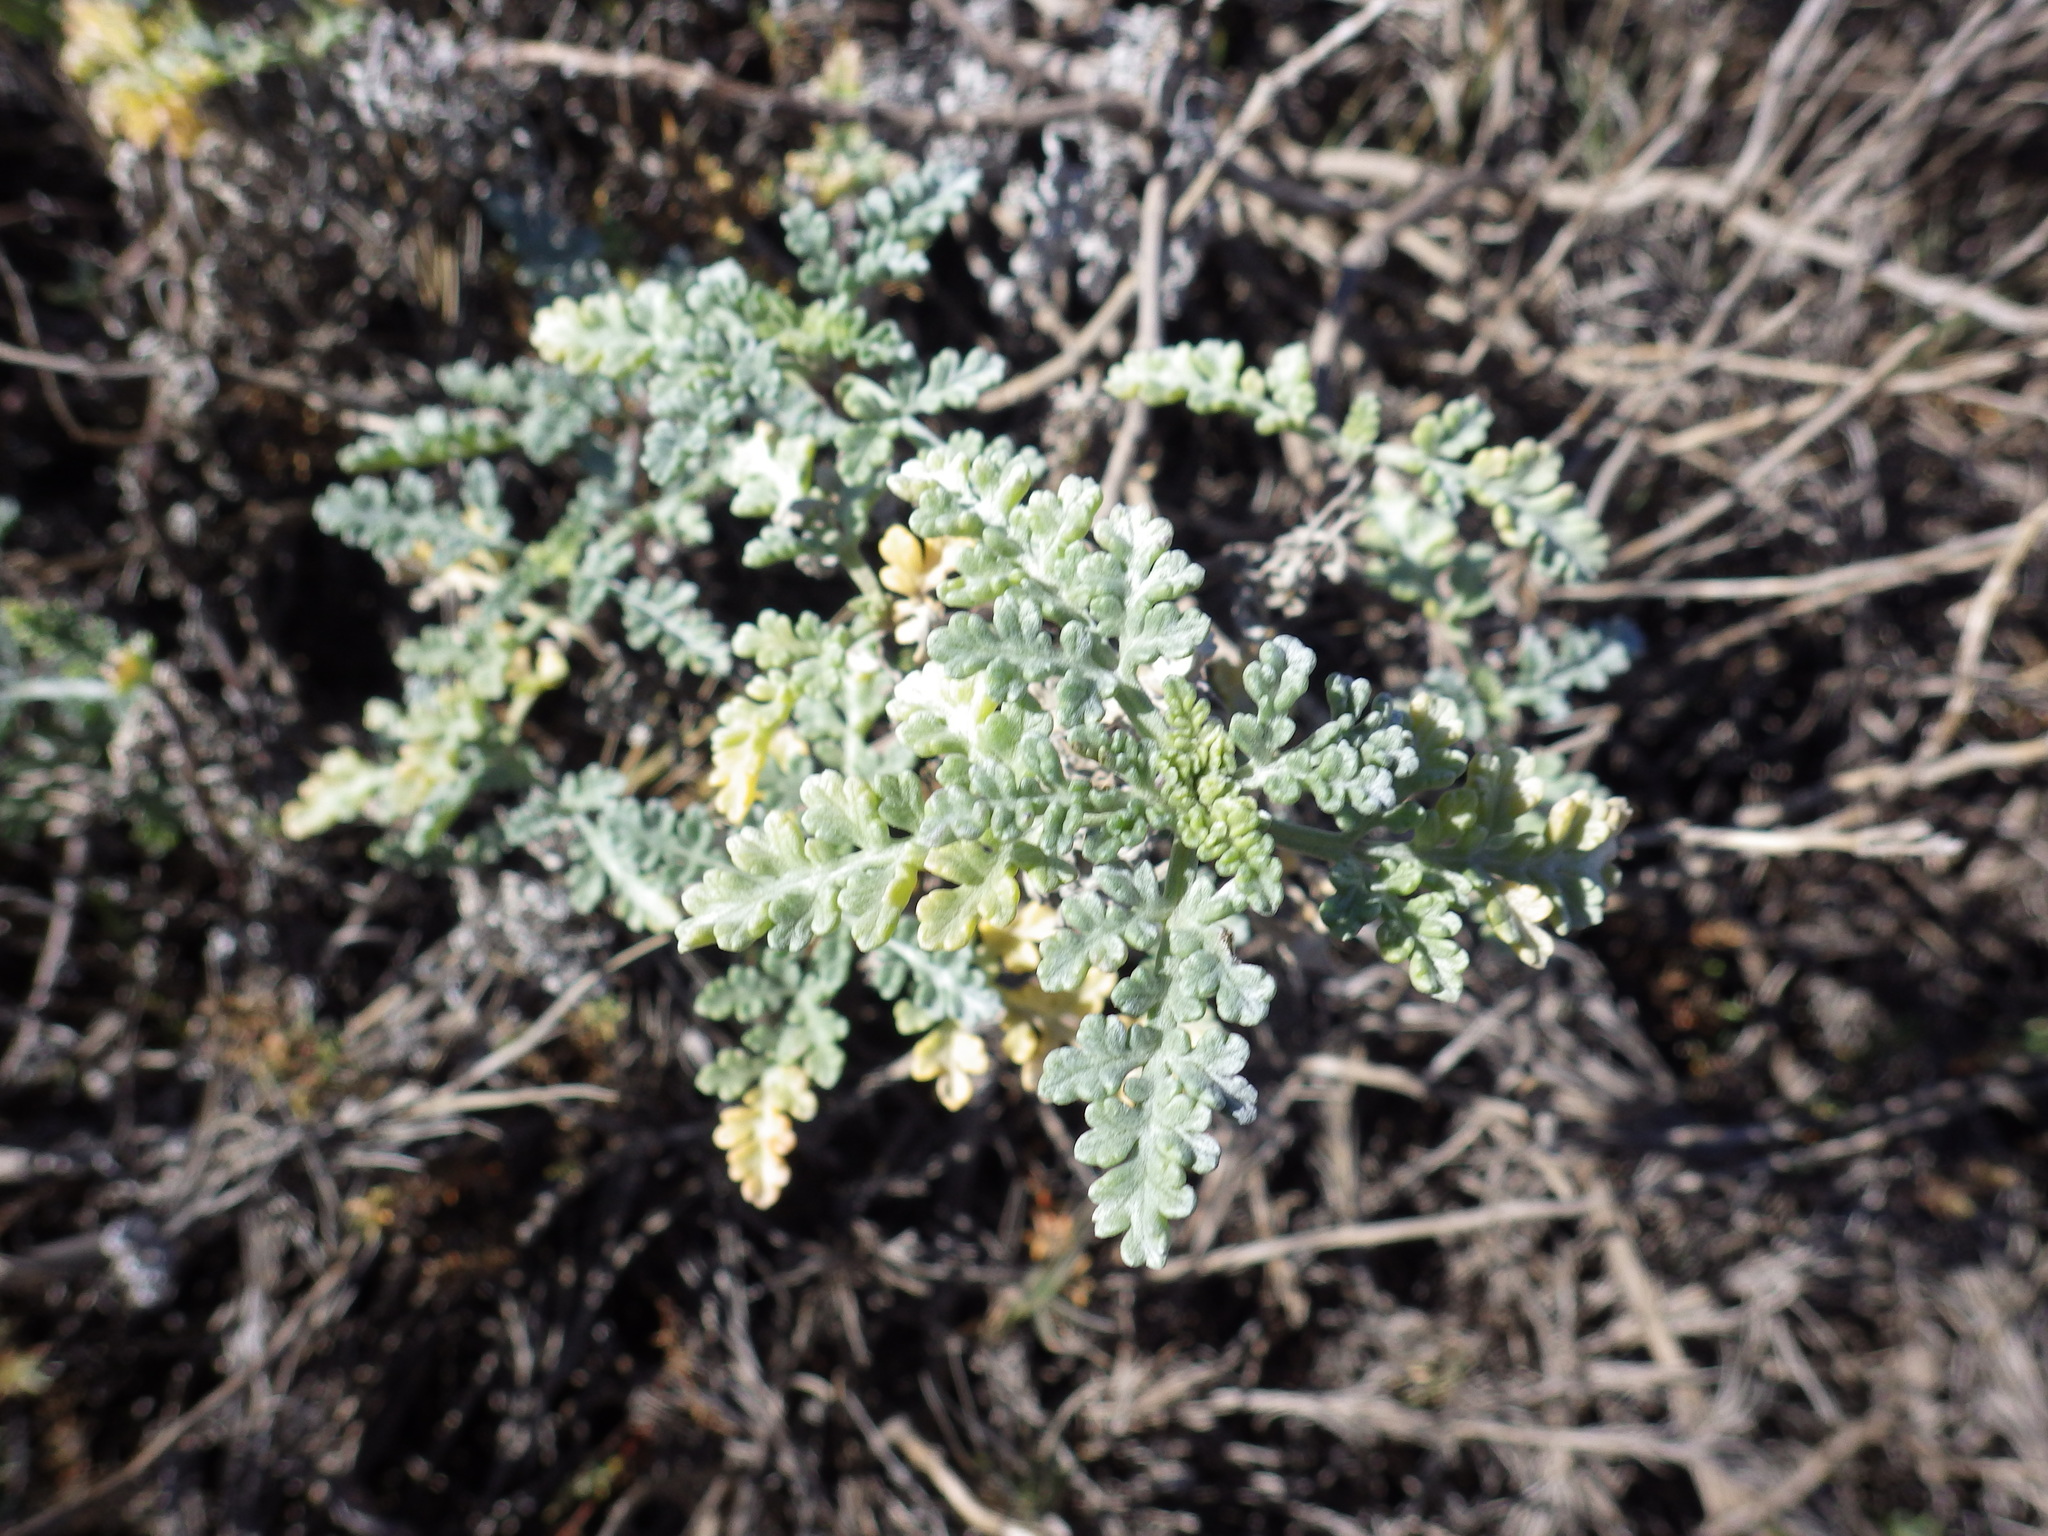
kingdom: Plantae
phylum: Tracheophyta
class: Magnoliopsida
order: Asterales
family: Asteraceae
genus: Ambrosia
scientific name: Ambrosia chamissonis
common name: Beachbur
